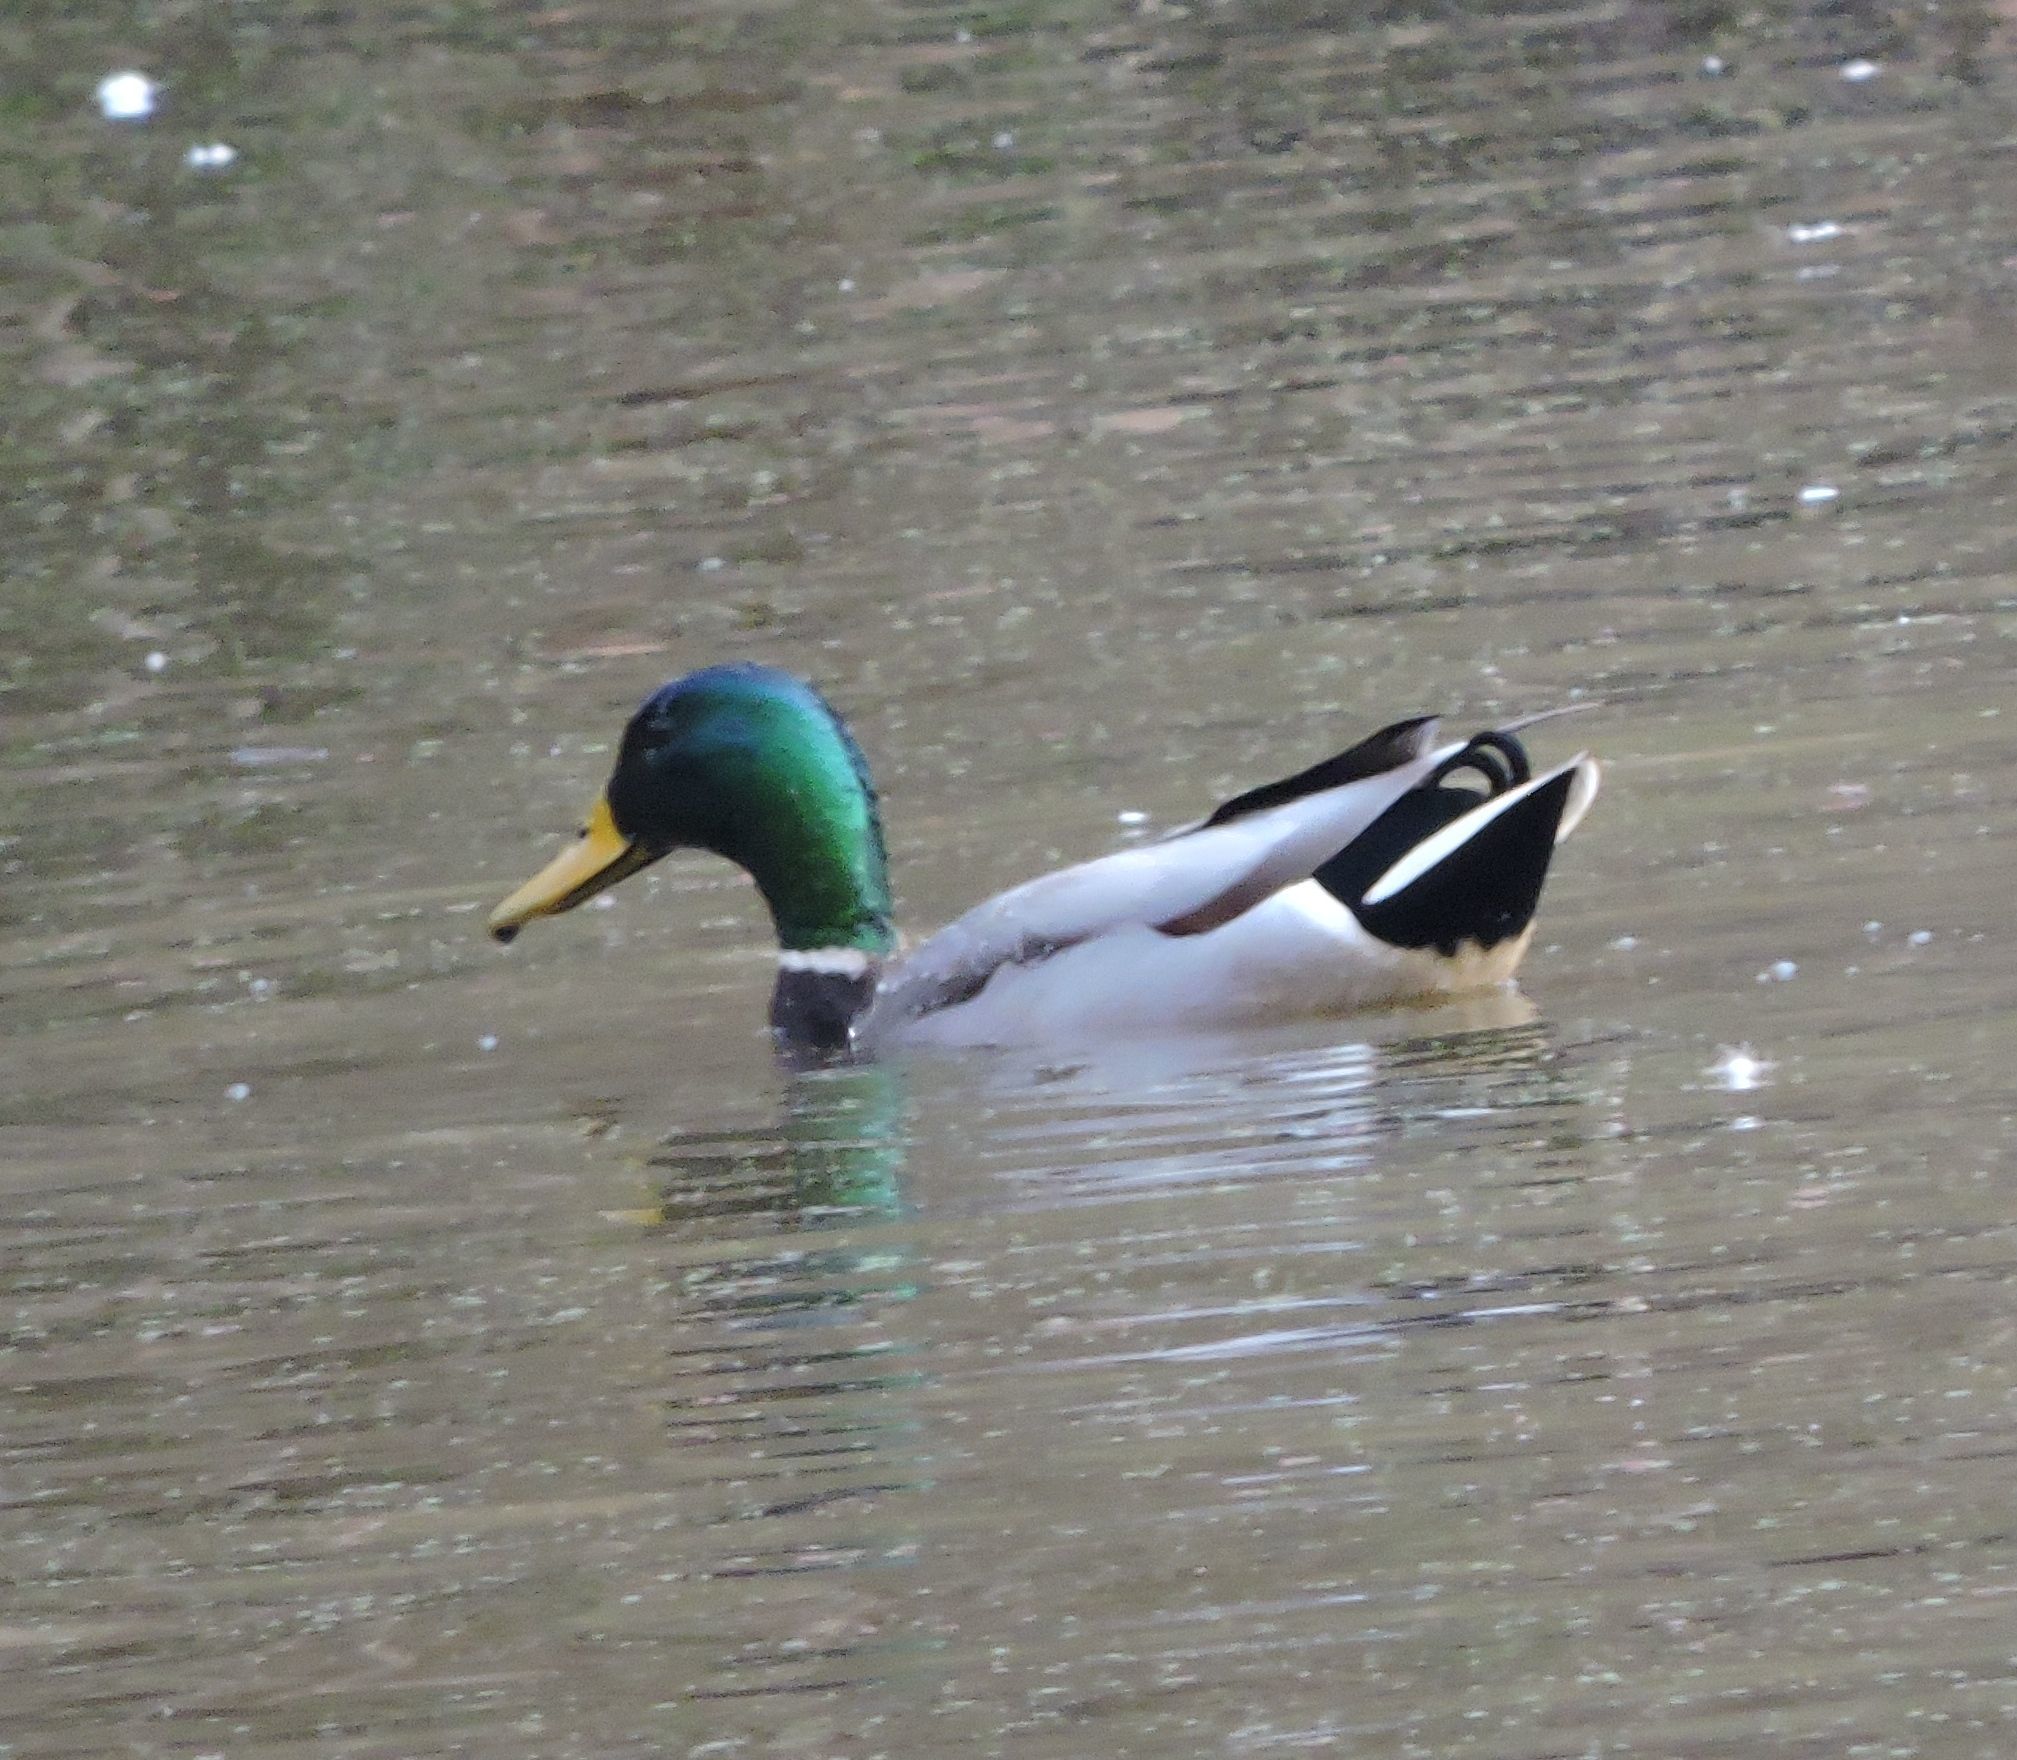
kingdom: Animalia
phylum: Chordata
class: Aves
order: Anseriformes
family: Anatidae
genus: Anas
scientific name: Anas platyrhynchos
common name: Mallard
